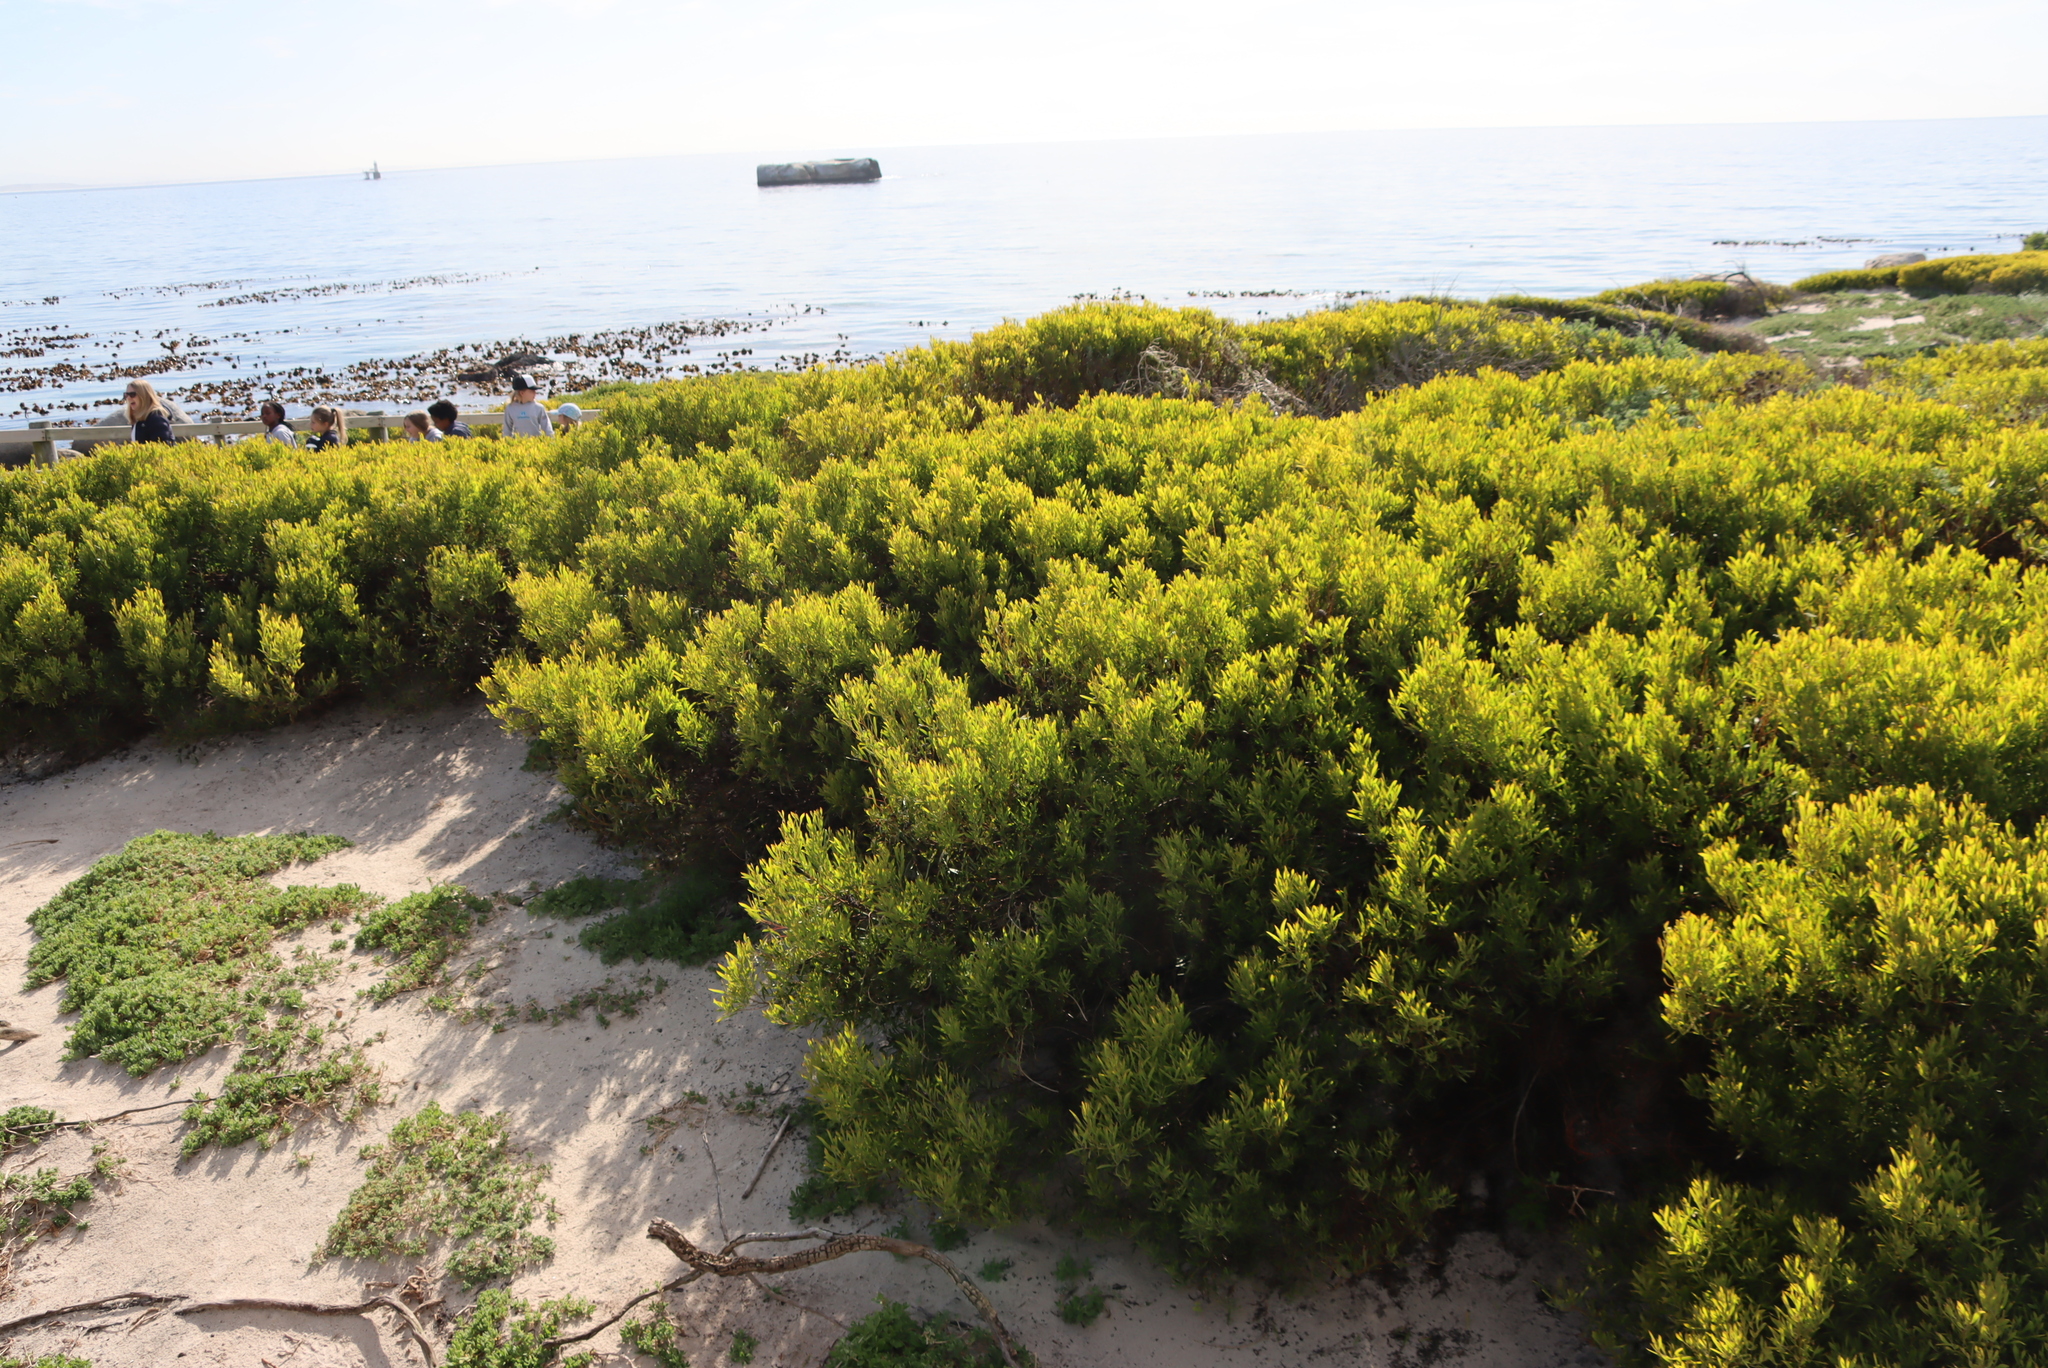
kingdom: Plantae
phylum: Tracheophyta
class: Magnoliopsida
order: Fabales
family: Fabaceae
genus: Acacia
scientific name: Acacia cyclops
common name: Coastal wattle
